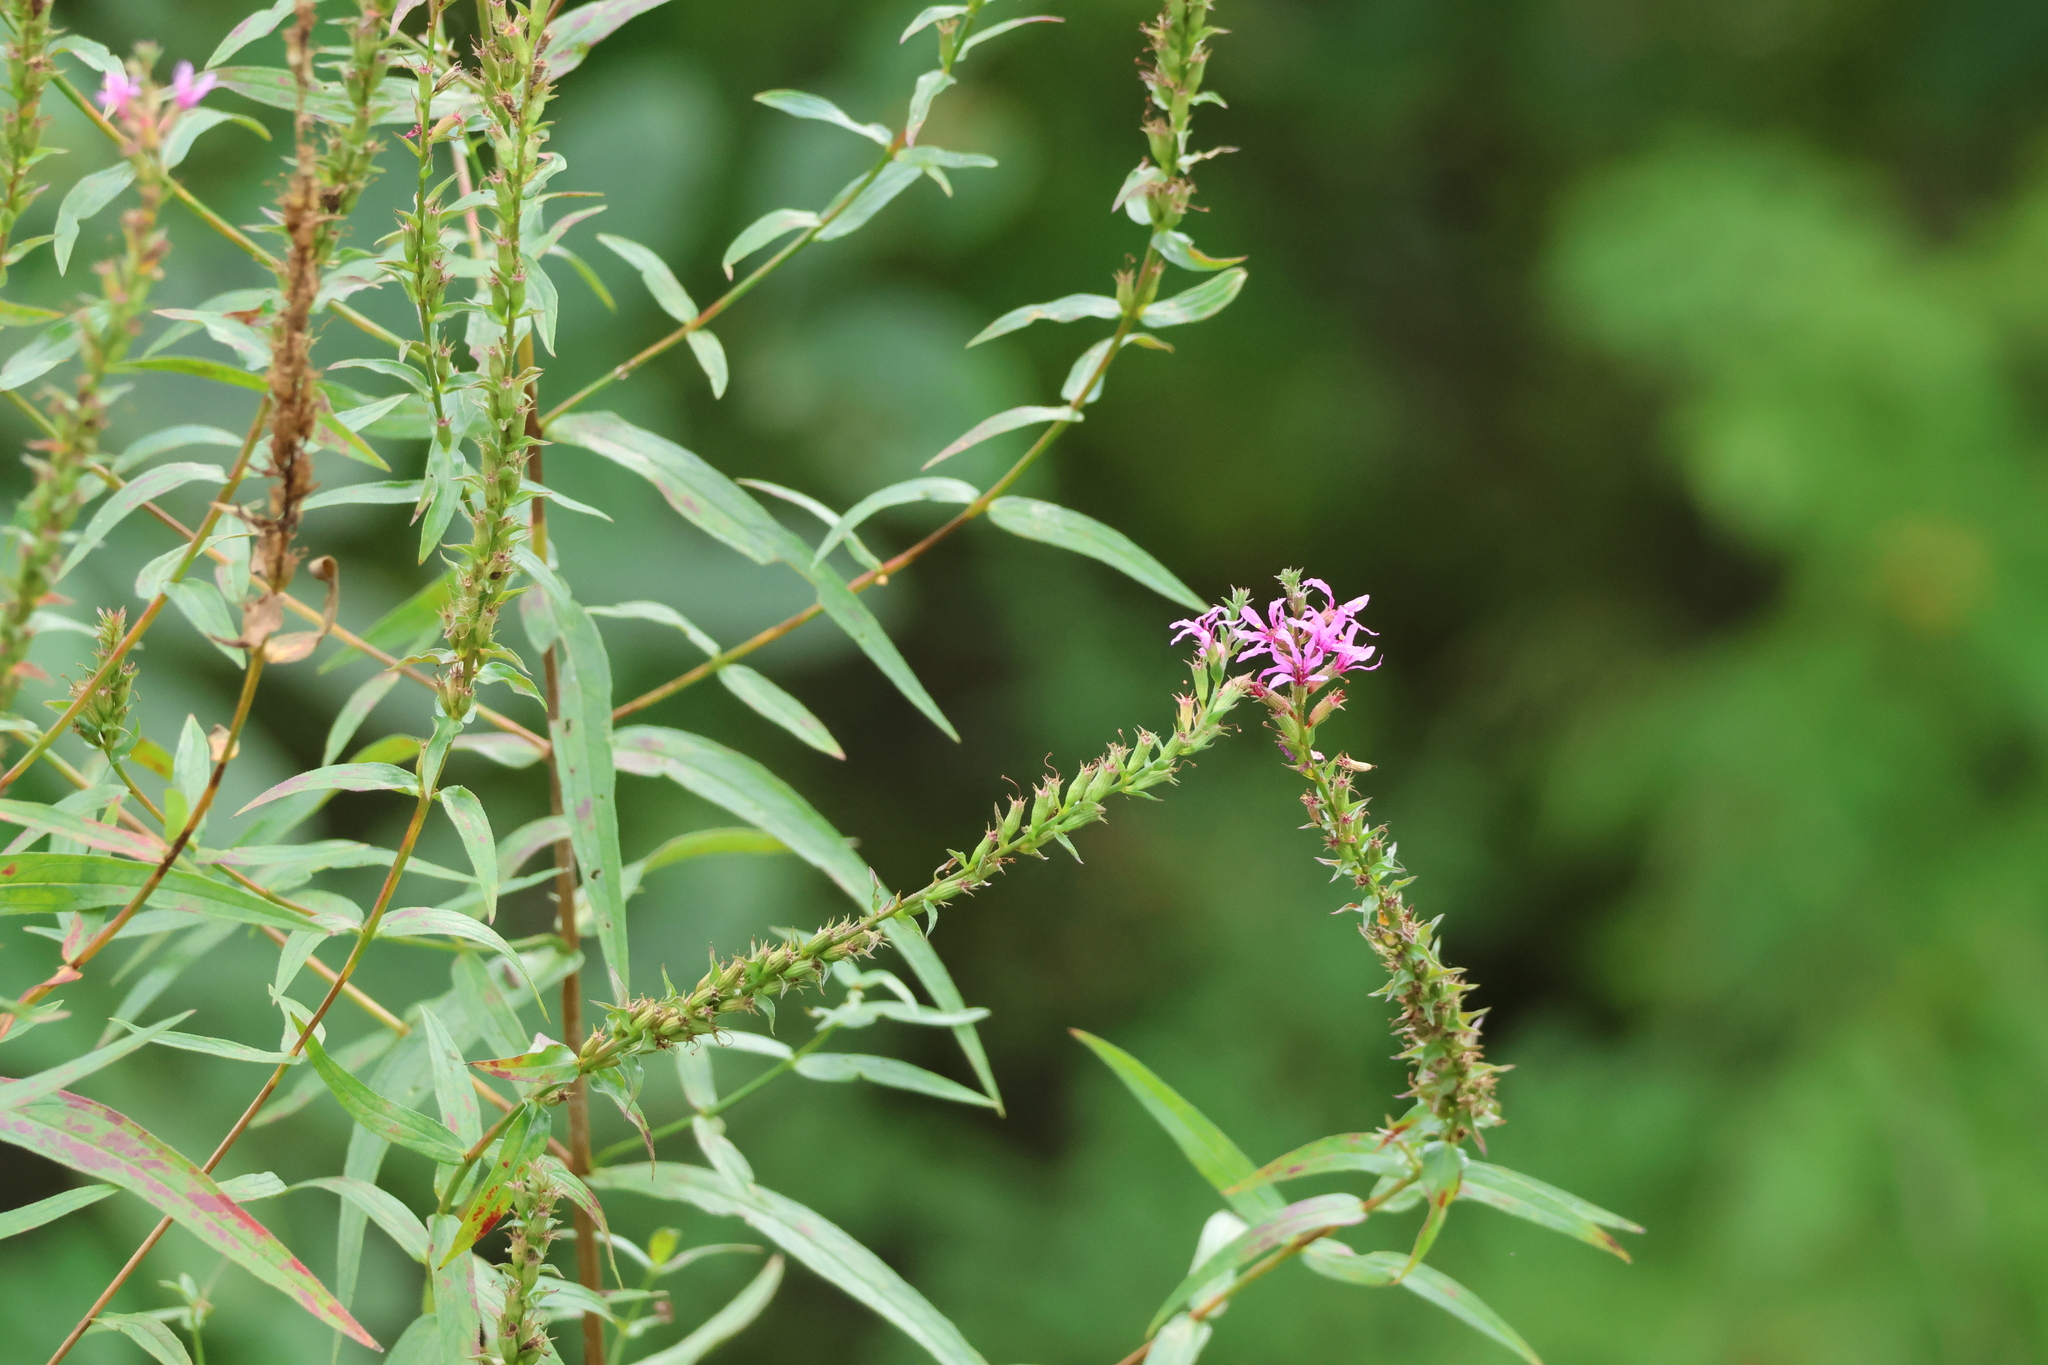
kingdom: Plantae
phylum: Tracheophyta
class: Magnoliopsida
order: Myrtales
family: Lythraceae
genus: Lythrum
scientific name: Lythrum salicaria
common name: Purple loosestrife
